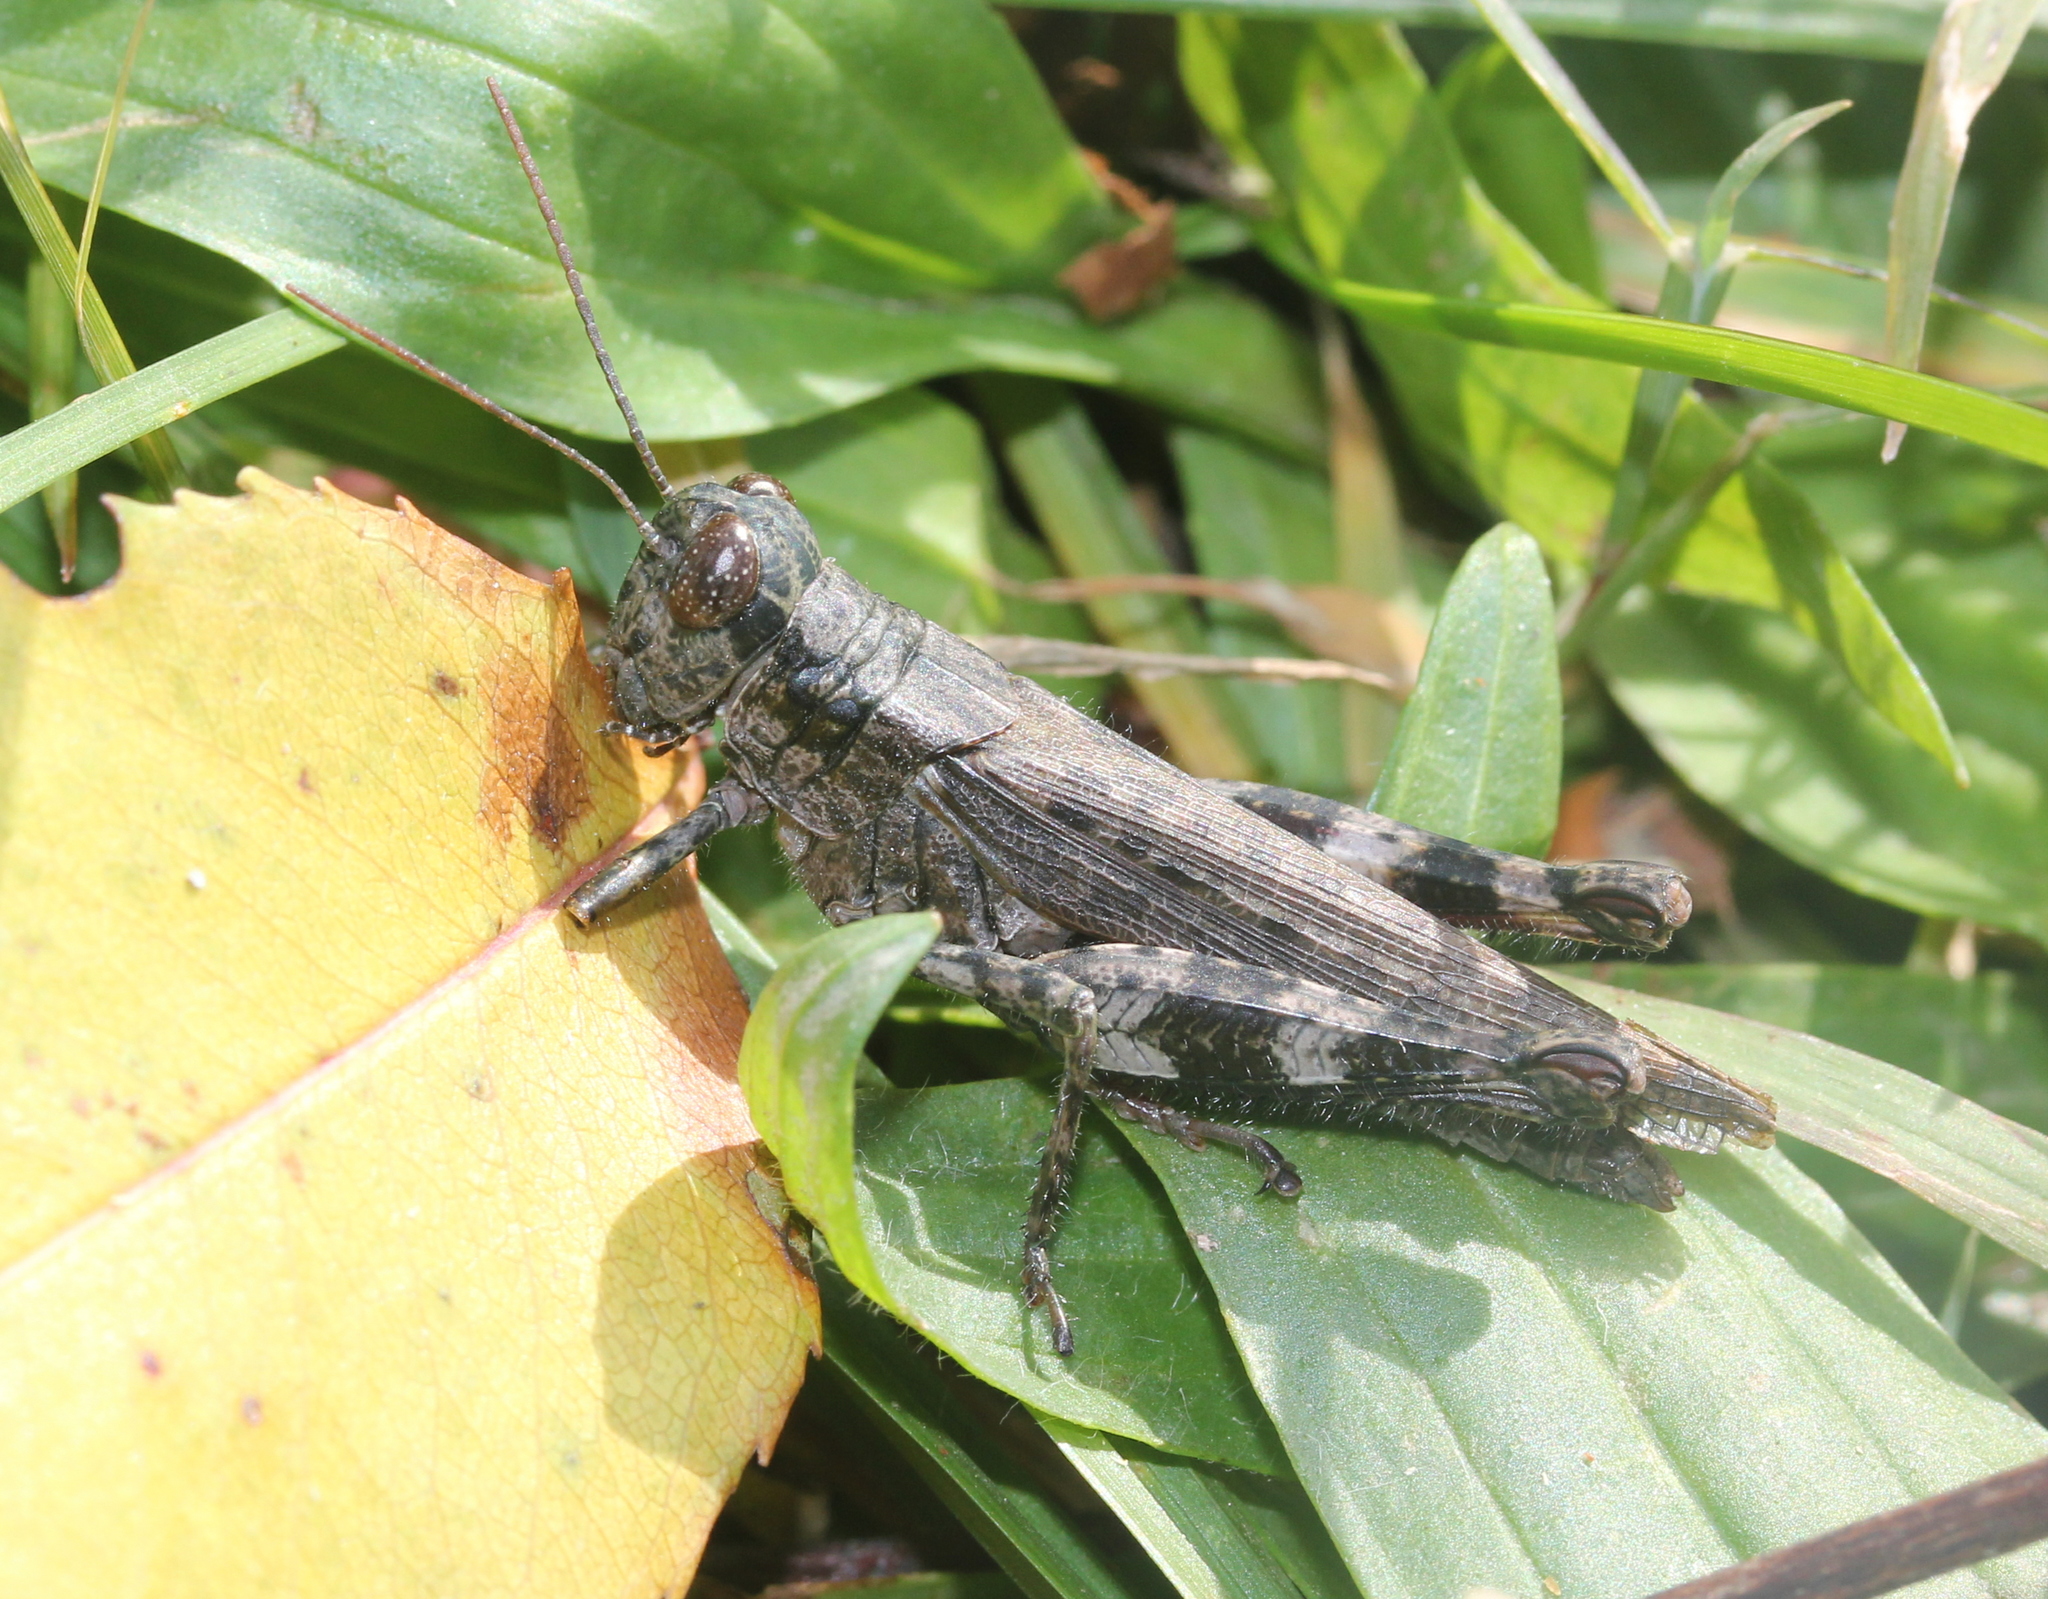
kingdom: Animalia
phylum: Arthropoda
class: Insecta
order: Orthoptera
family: Acrididae
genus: Melanoplus
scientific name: Melanoplus punctulatus
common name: Pine-tree spur-throat grasshopper
